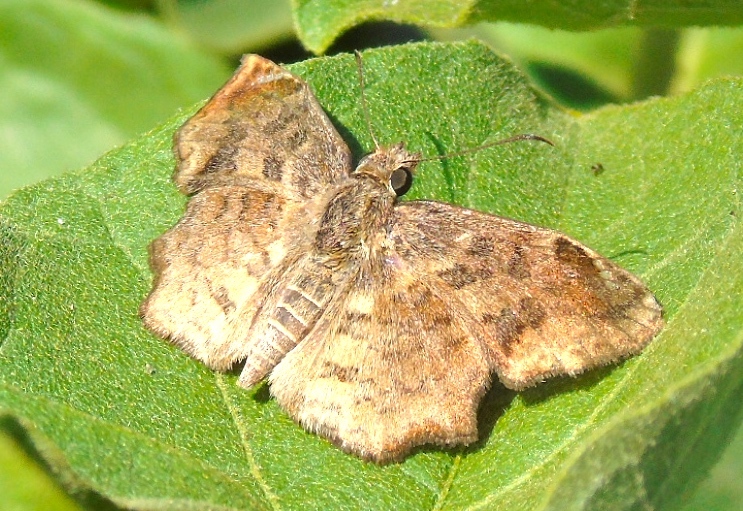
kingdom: Animalia
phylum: Arthropoda
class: Insecta
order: Lepidoptera
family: Hesperiidae
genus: Antigonus
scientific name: Antigonus erosus
